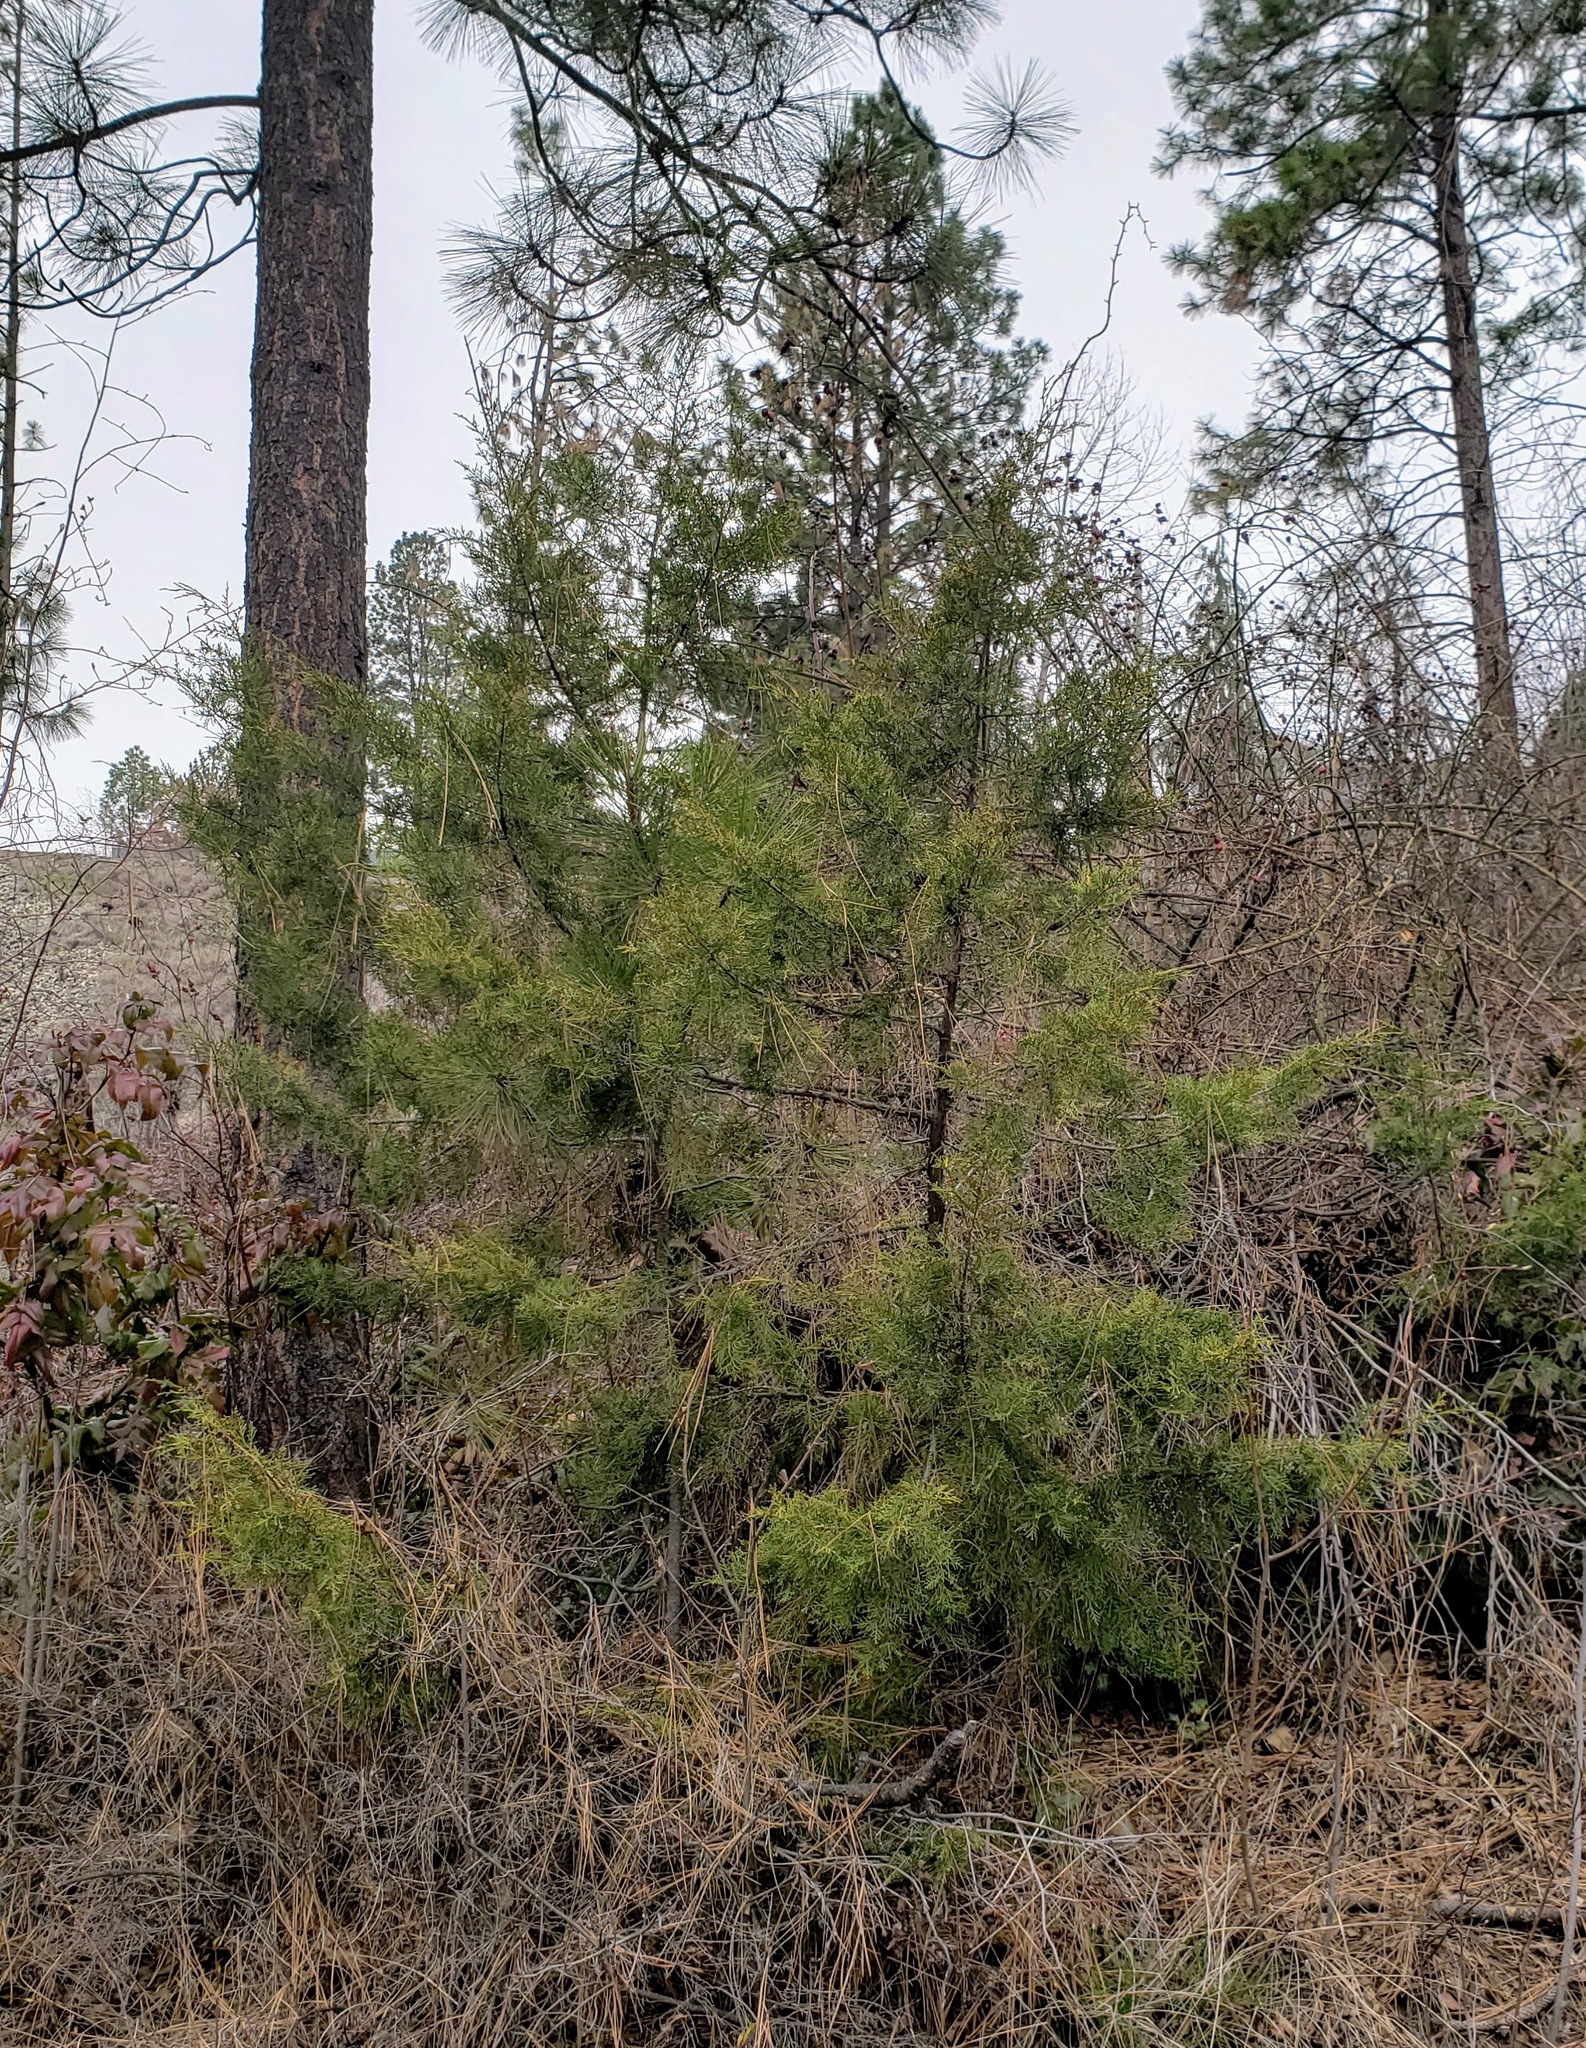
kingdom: Plantae
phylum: Tracheophyta
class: Pinopsida
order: Pinales
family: Cupressaceae
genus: Juniperus
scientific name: Juniperus scopulorum
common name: Rocky mountain juniper
